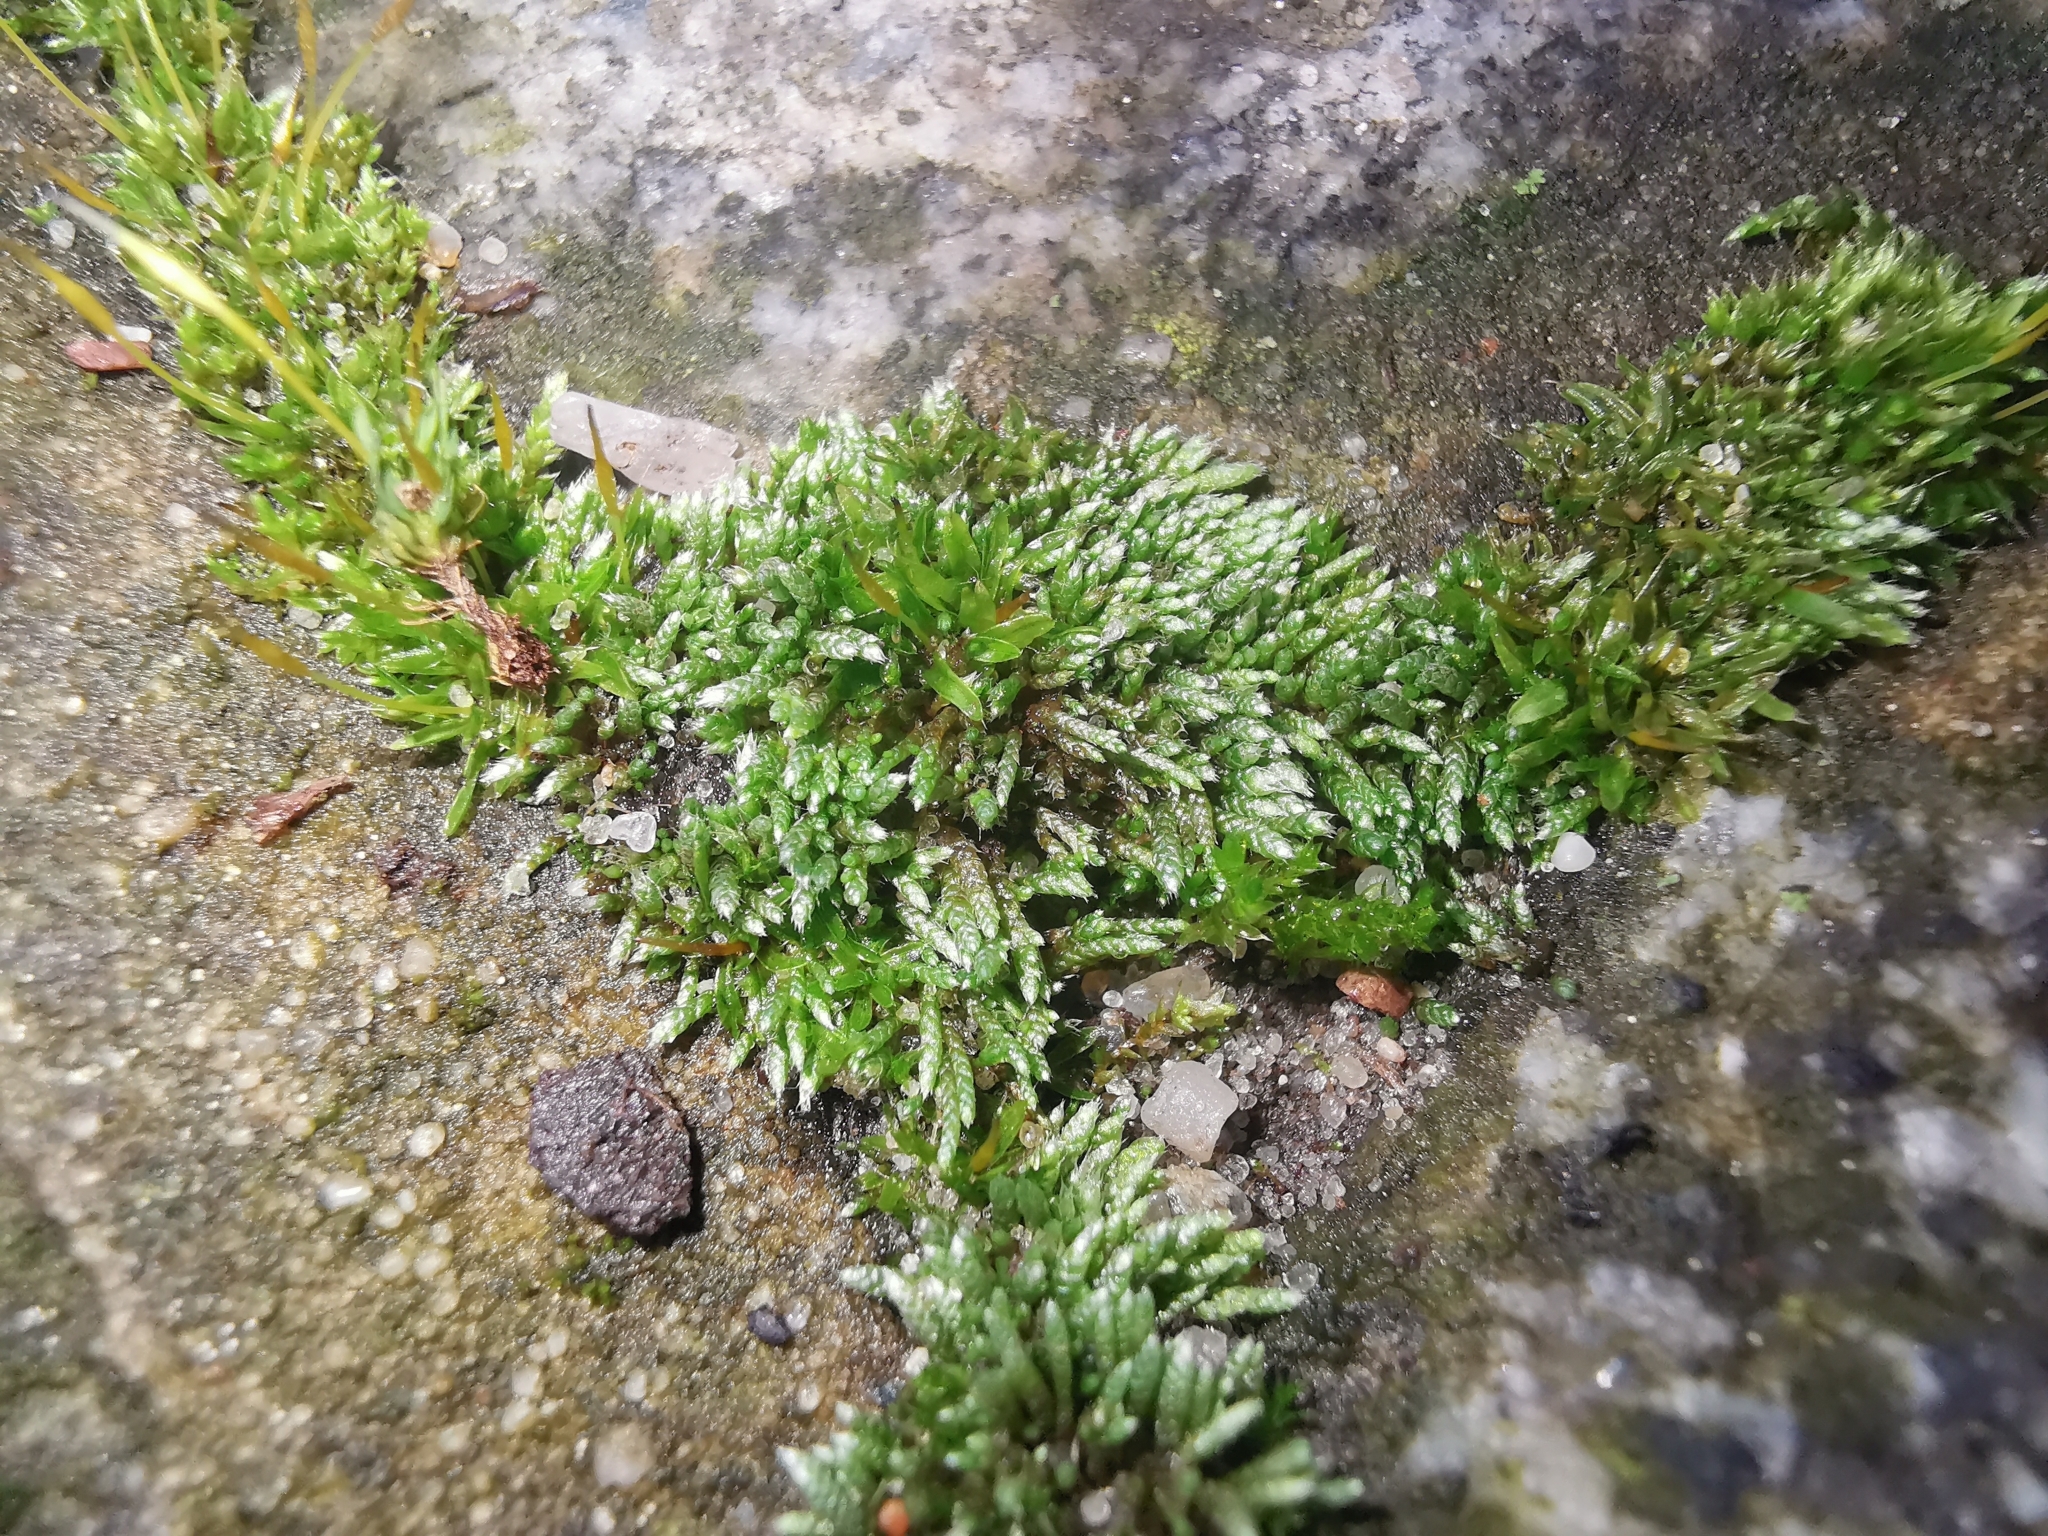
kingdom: Plantae
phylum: Bryophyta
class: Bryopsida
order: Bryales
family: Bryaceae
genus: Bryum
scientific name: Bryum argenteum
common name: Silver-moss
